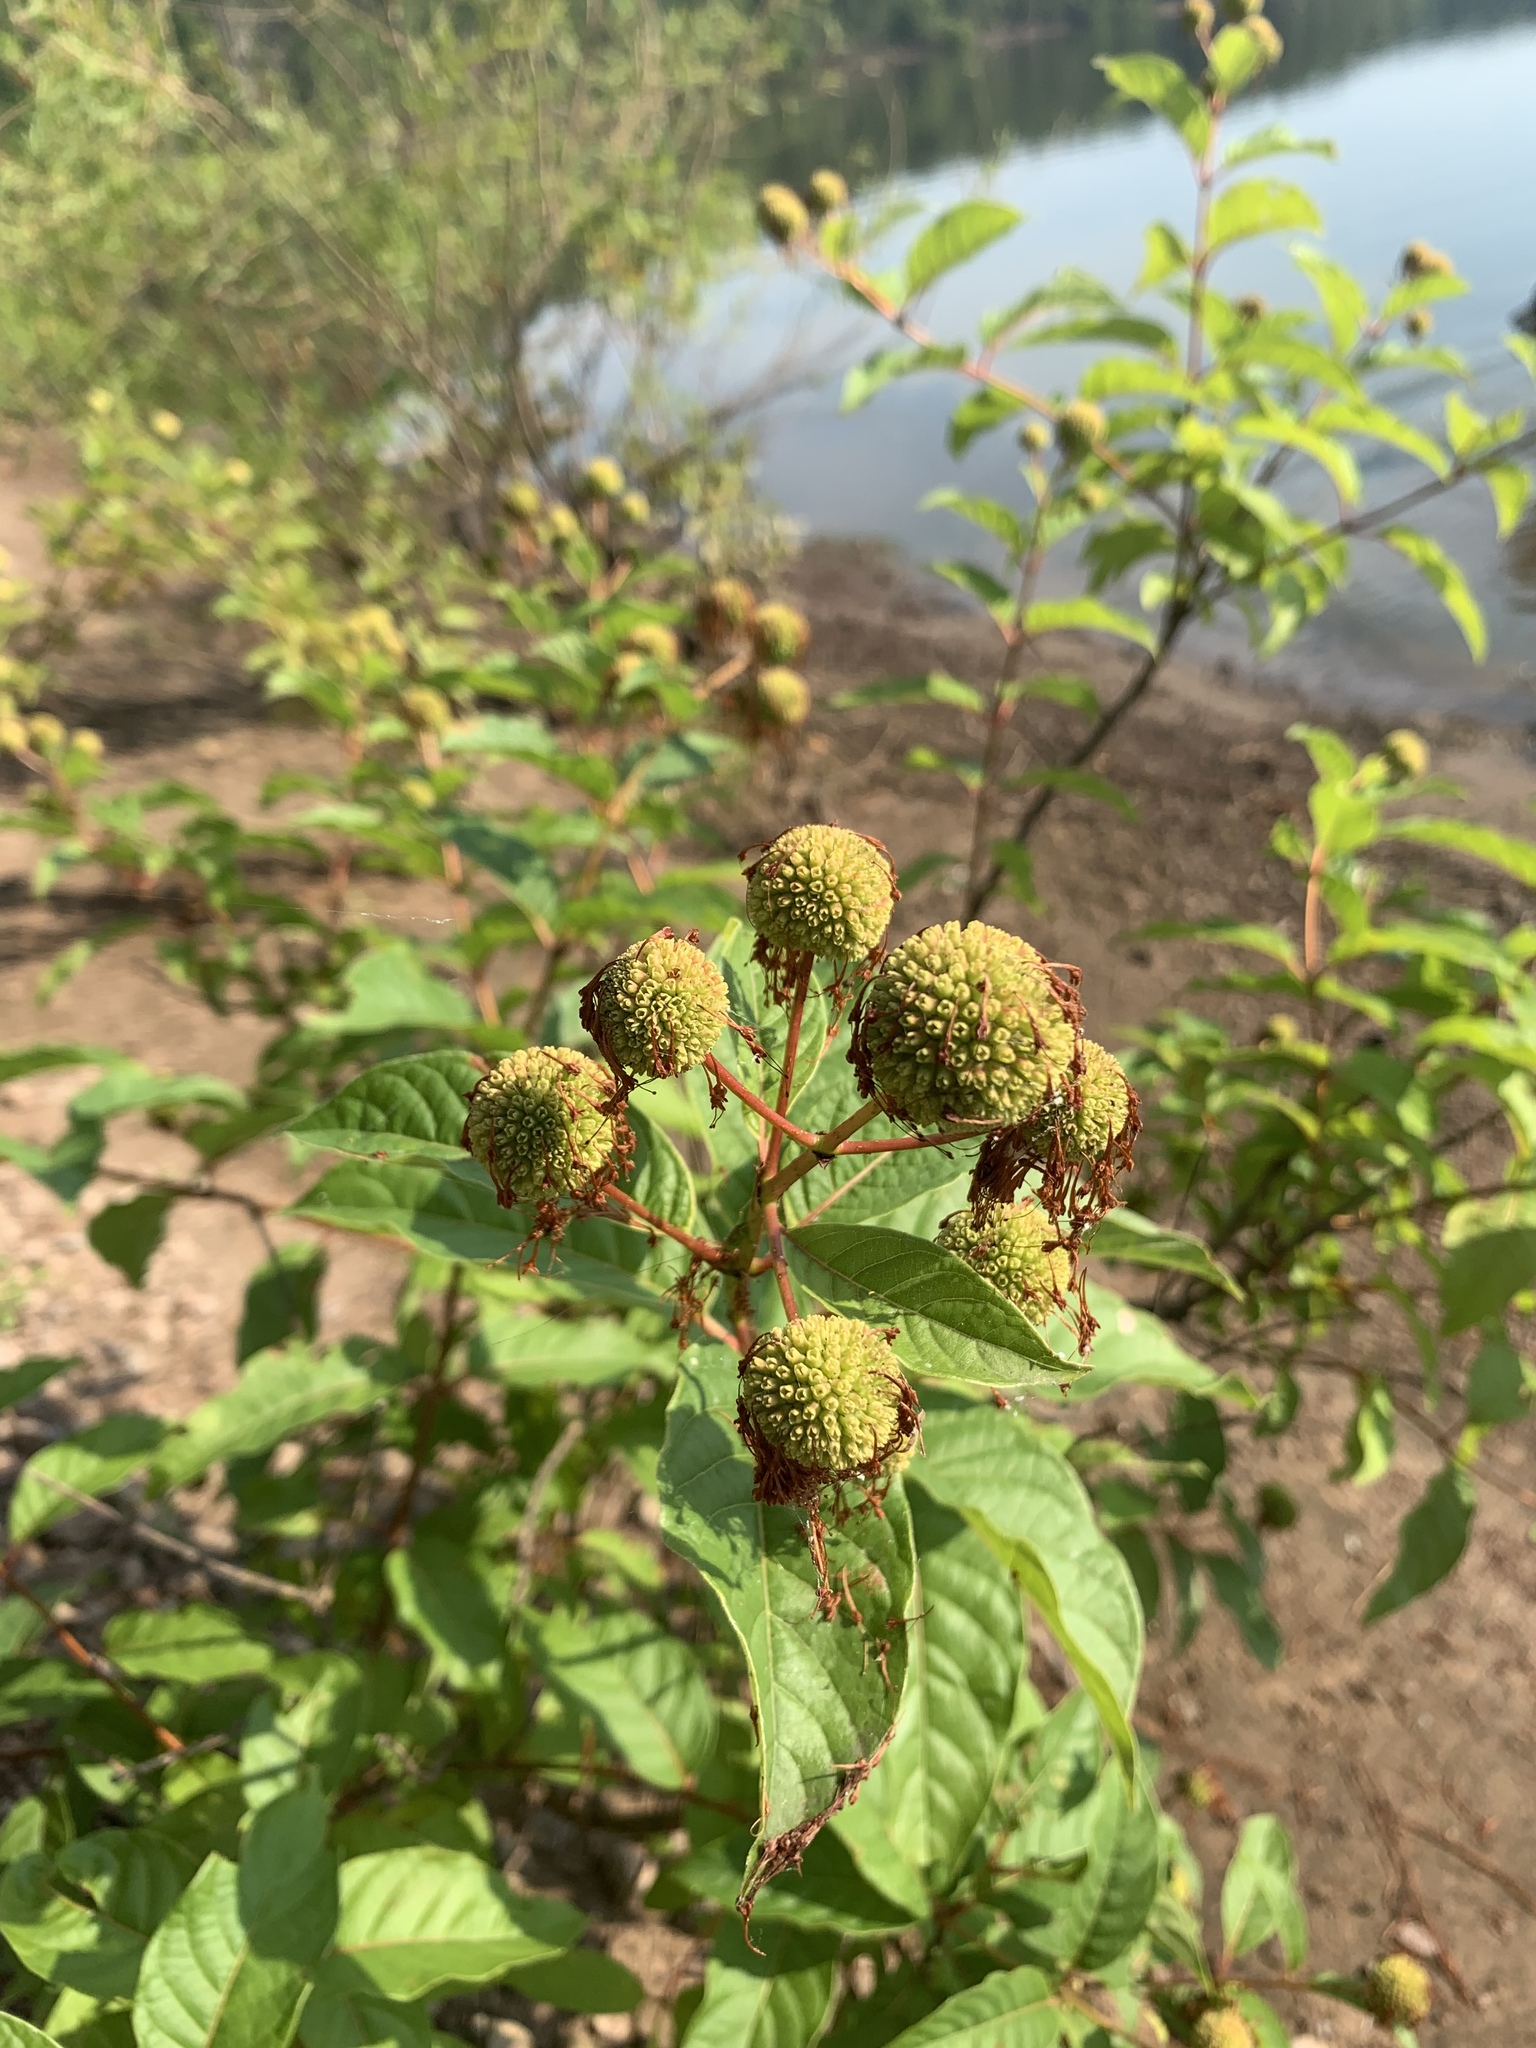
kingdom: Plantae
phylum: Tracheophyta
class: Magnoliopsida
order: Gentianales
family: Rubiaceae
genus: Cephalanthus
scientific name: Cephalanthus occidentalis
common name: Button-willow
